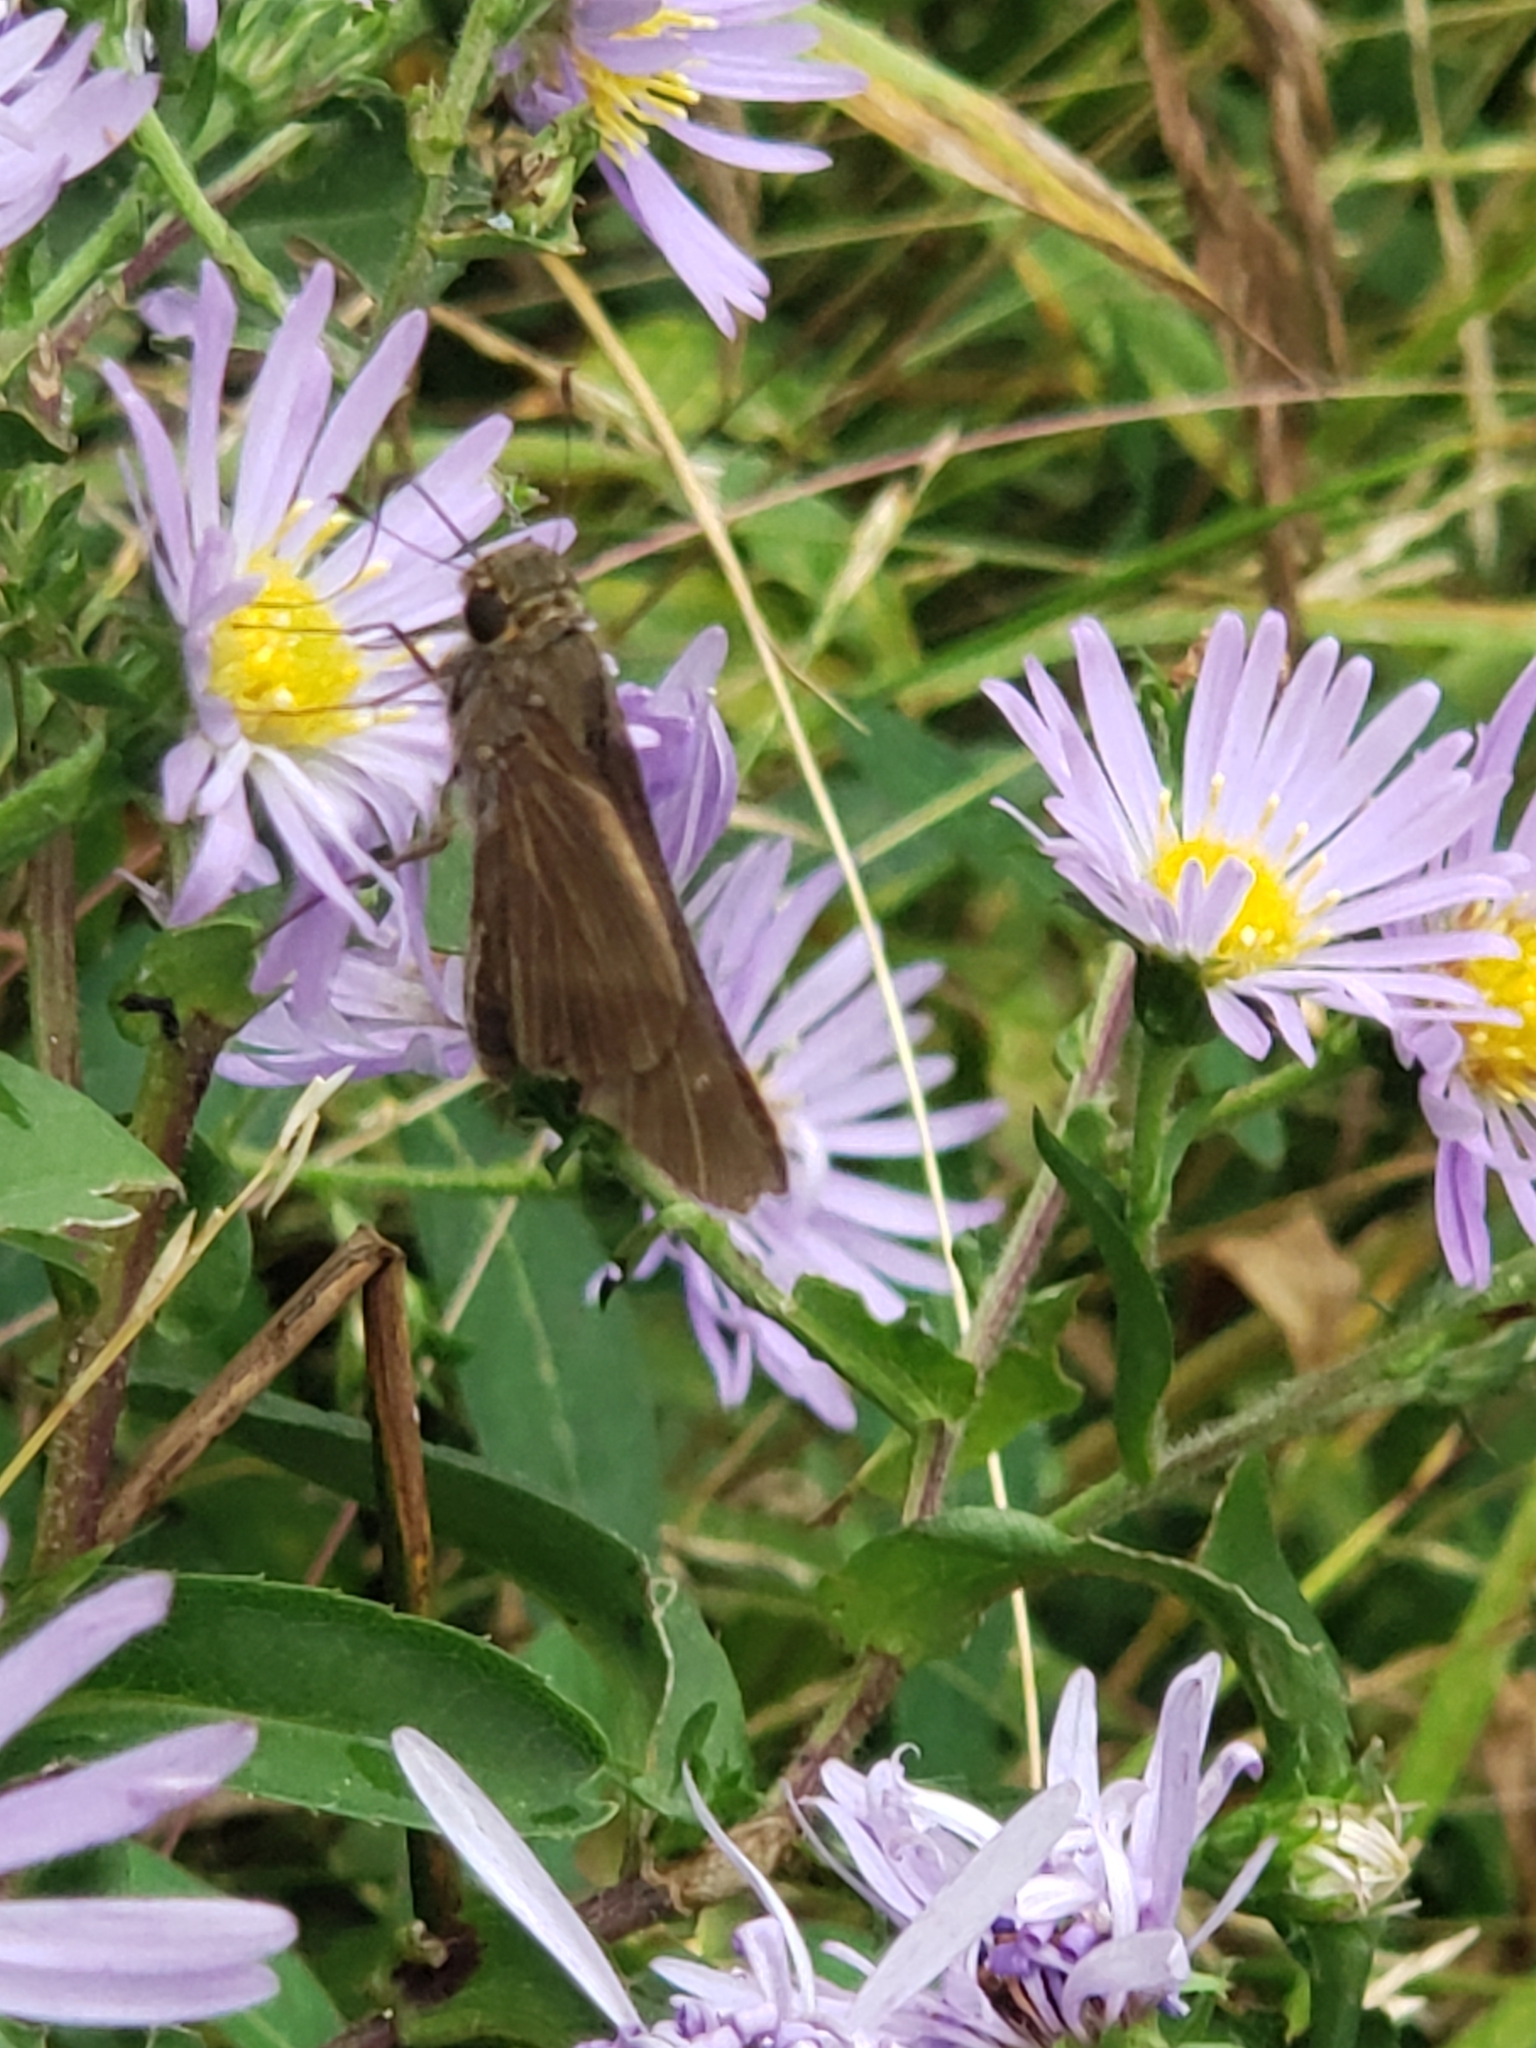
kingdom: Animalia
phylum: Arthropoda
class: Insecta
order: Lepidoptera
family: Hesperiidae
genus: Panoquina
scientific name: Panoquina ocola
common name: Ocola skipper
